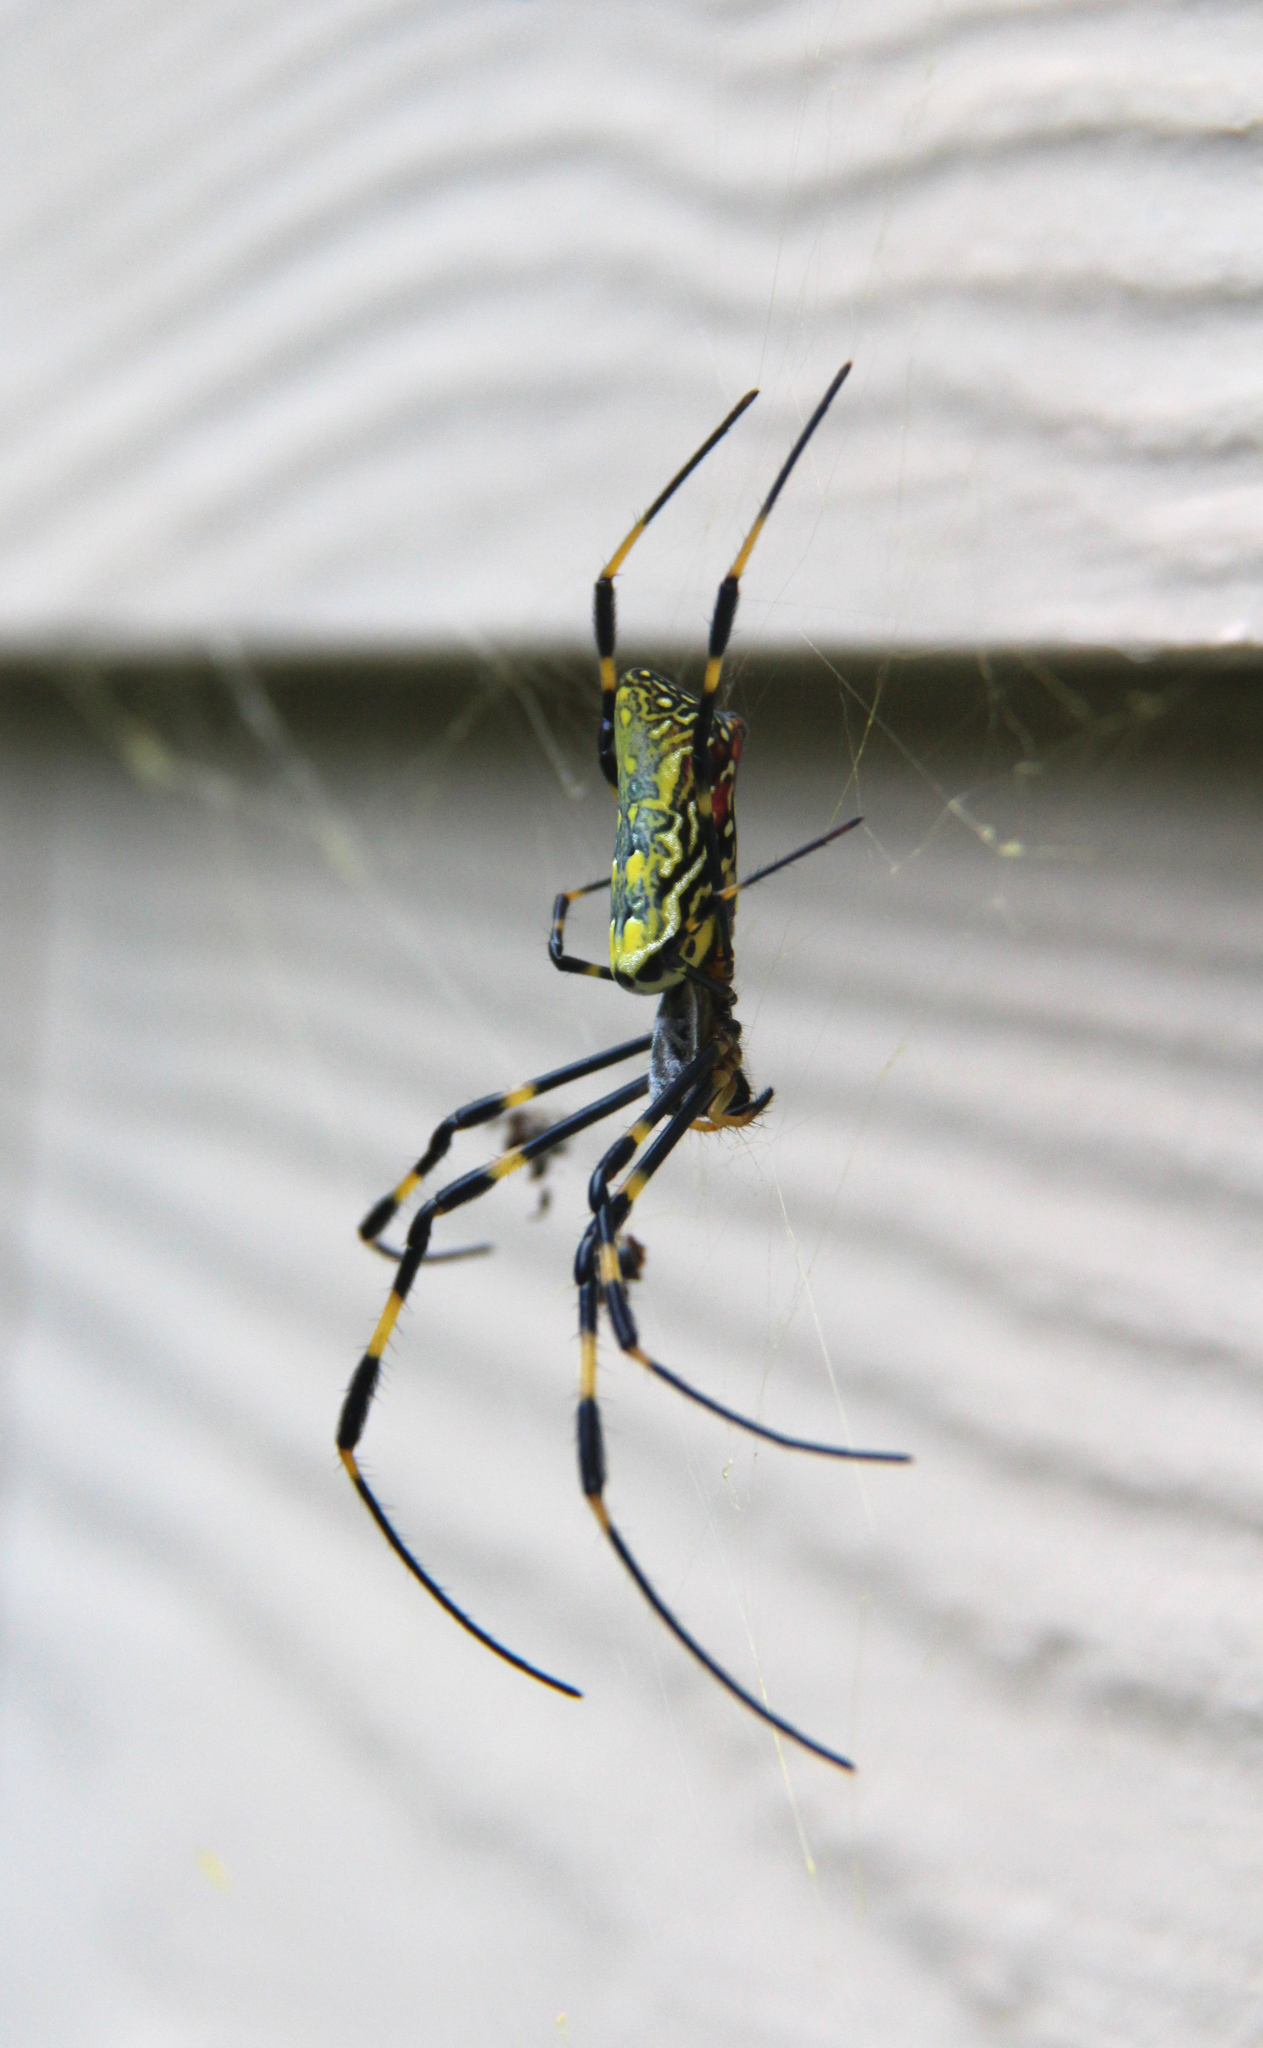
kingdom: Animalia
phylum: Arthropoda
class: Arachnida
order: Araneae
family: Araneidae
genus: Trichonephila
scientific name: Trichonephila clavata
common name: Jorō spider
